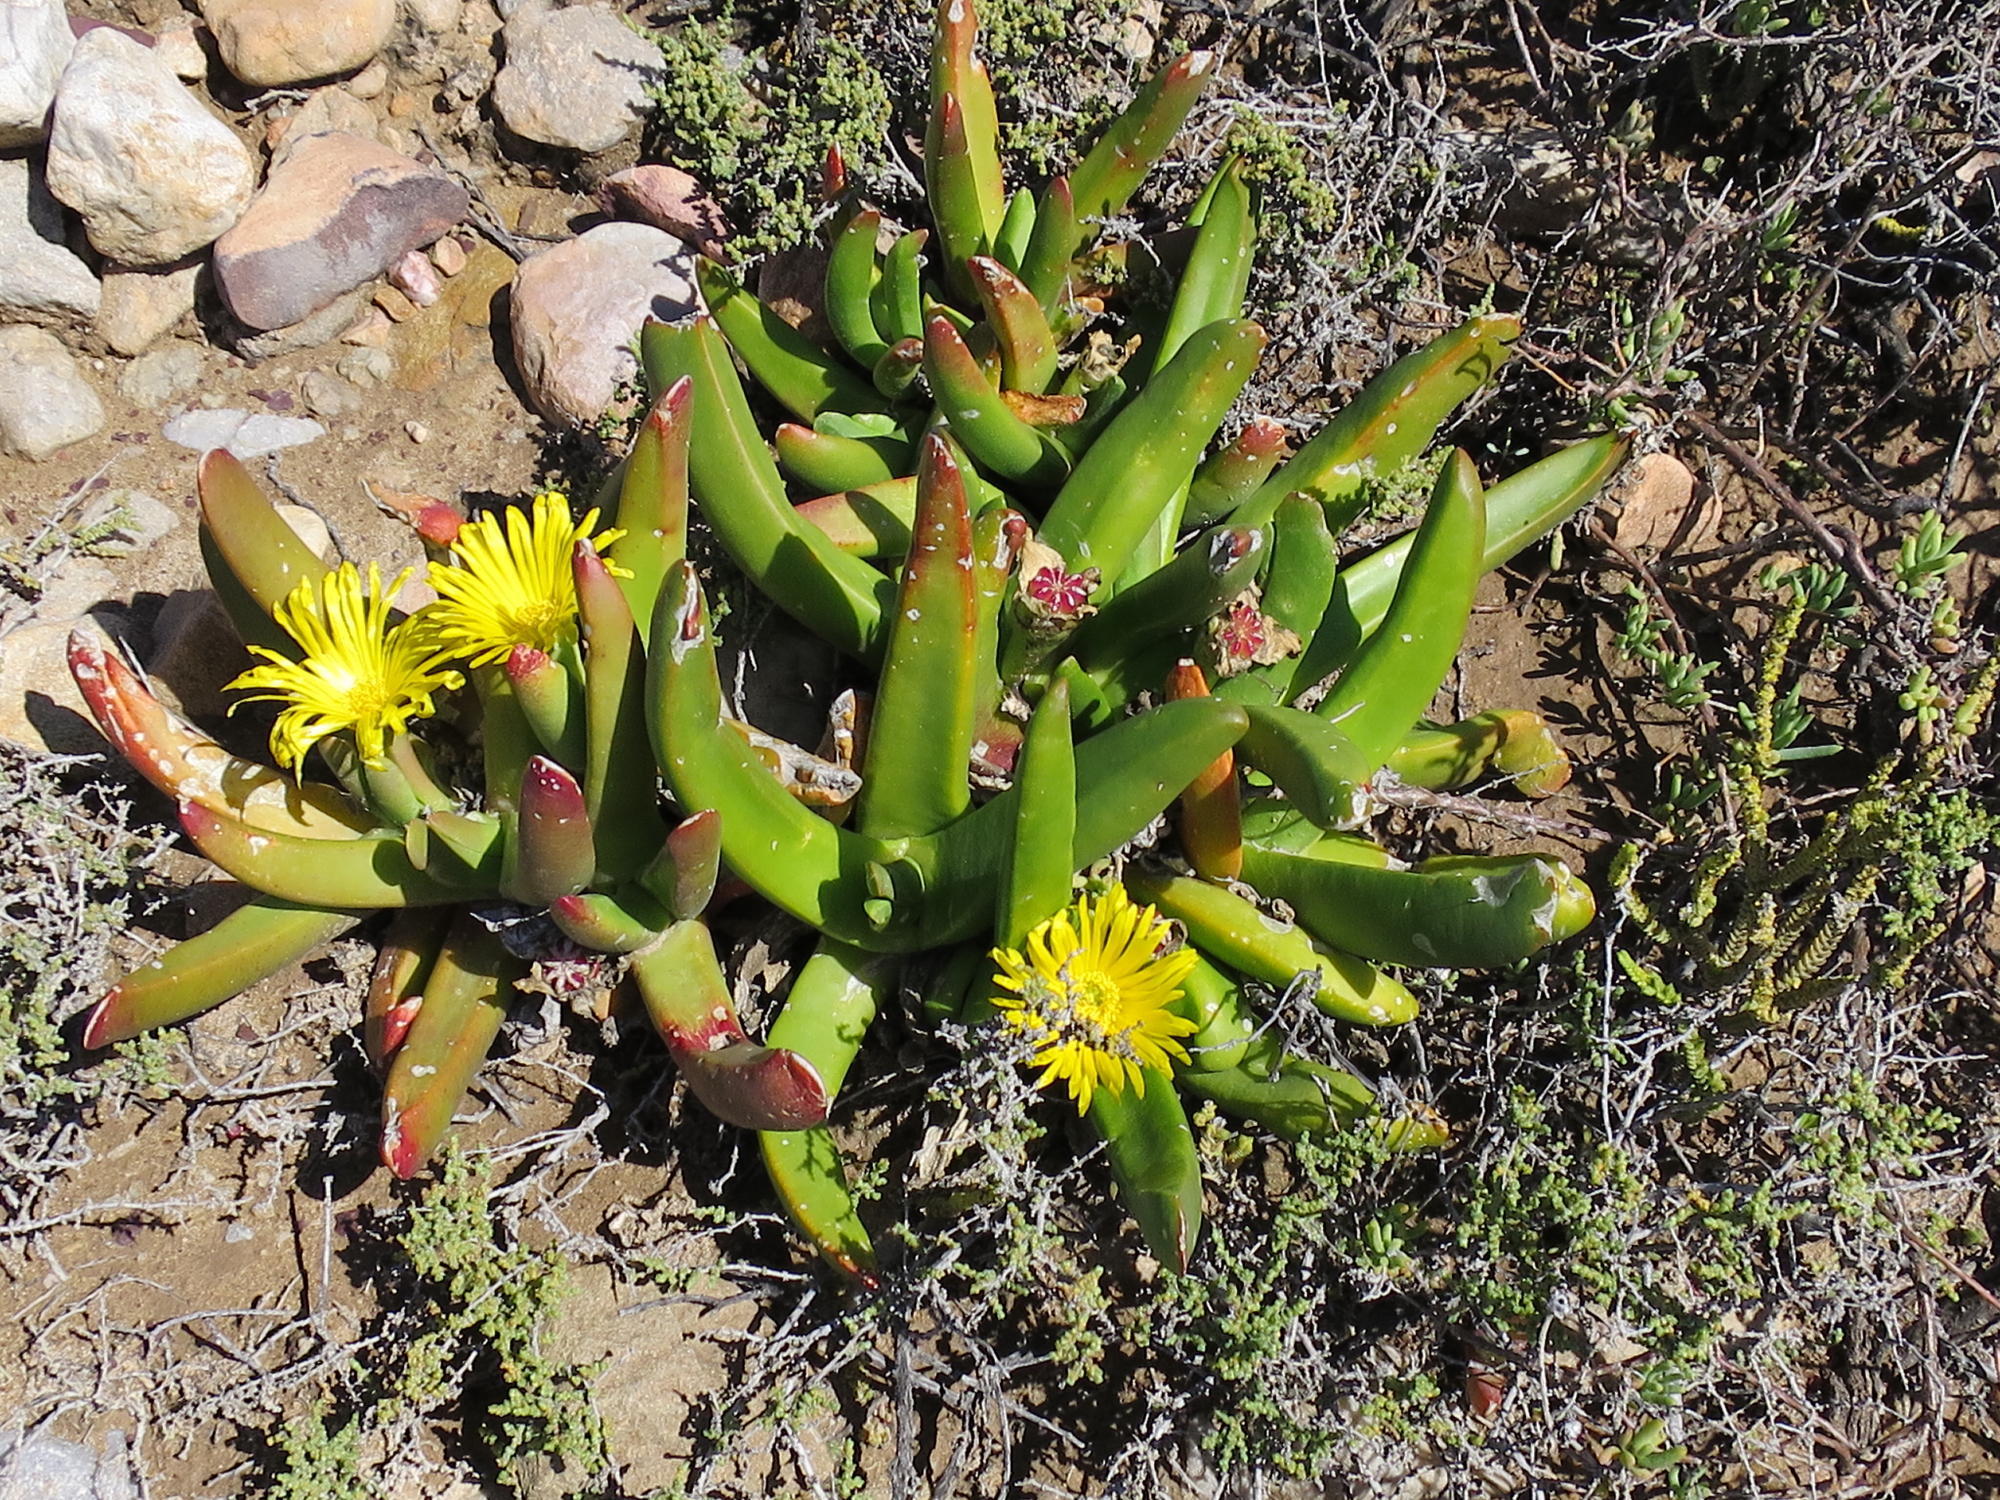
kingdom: Plantae
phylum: Tracheophyta
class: Magnoliopsida
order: Caryophyllales
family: Aizoaceae
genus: Glottiphyllum
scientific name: Glottiphyllum regium
